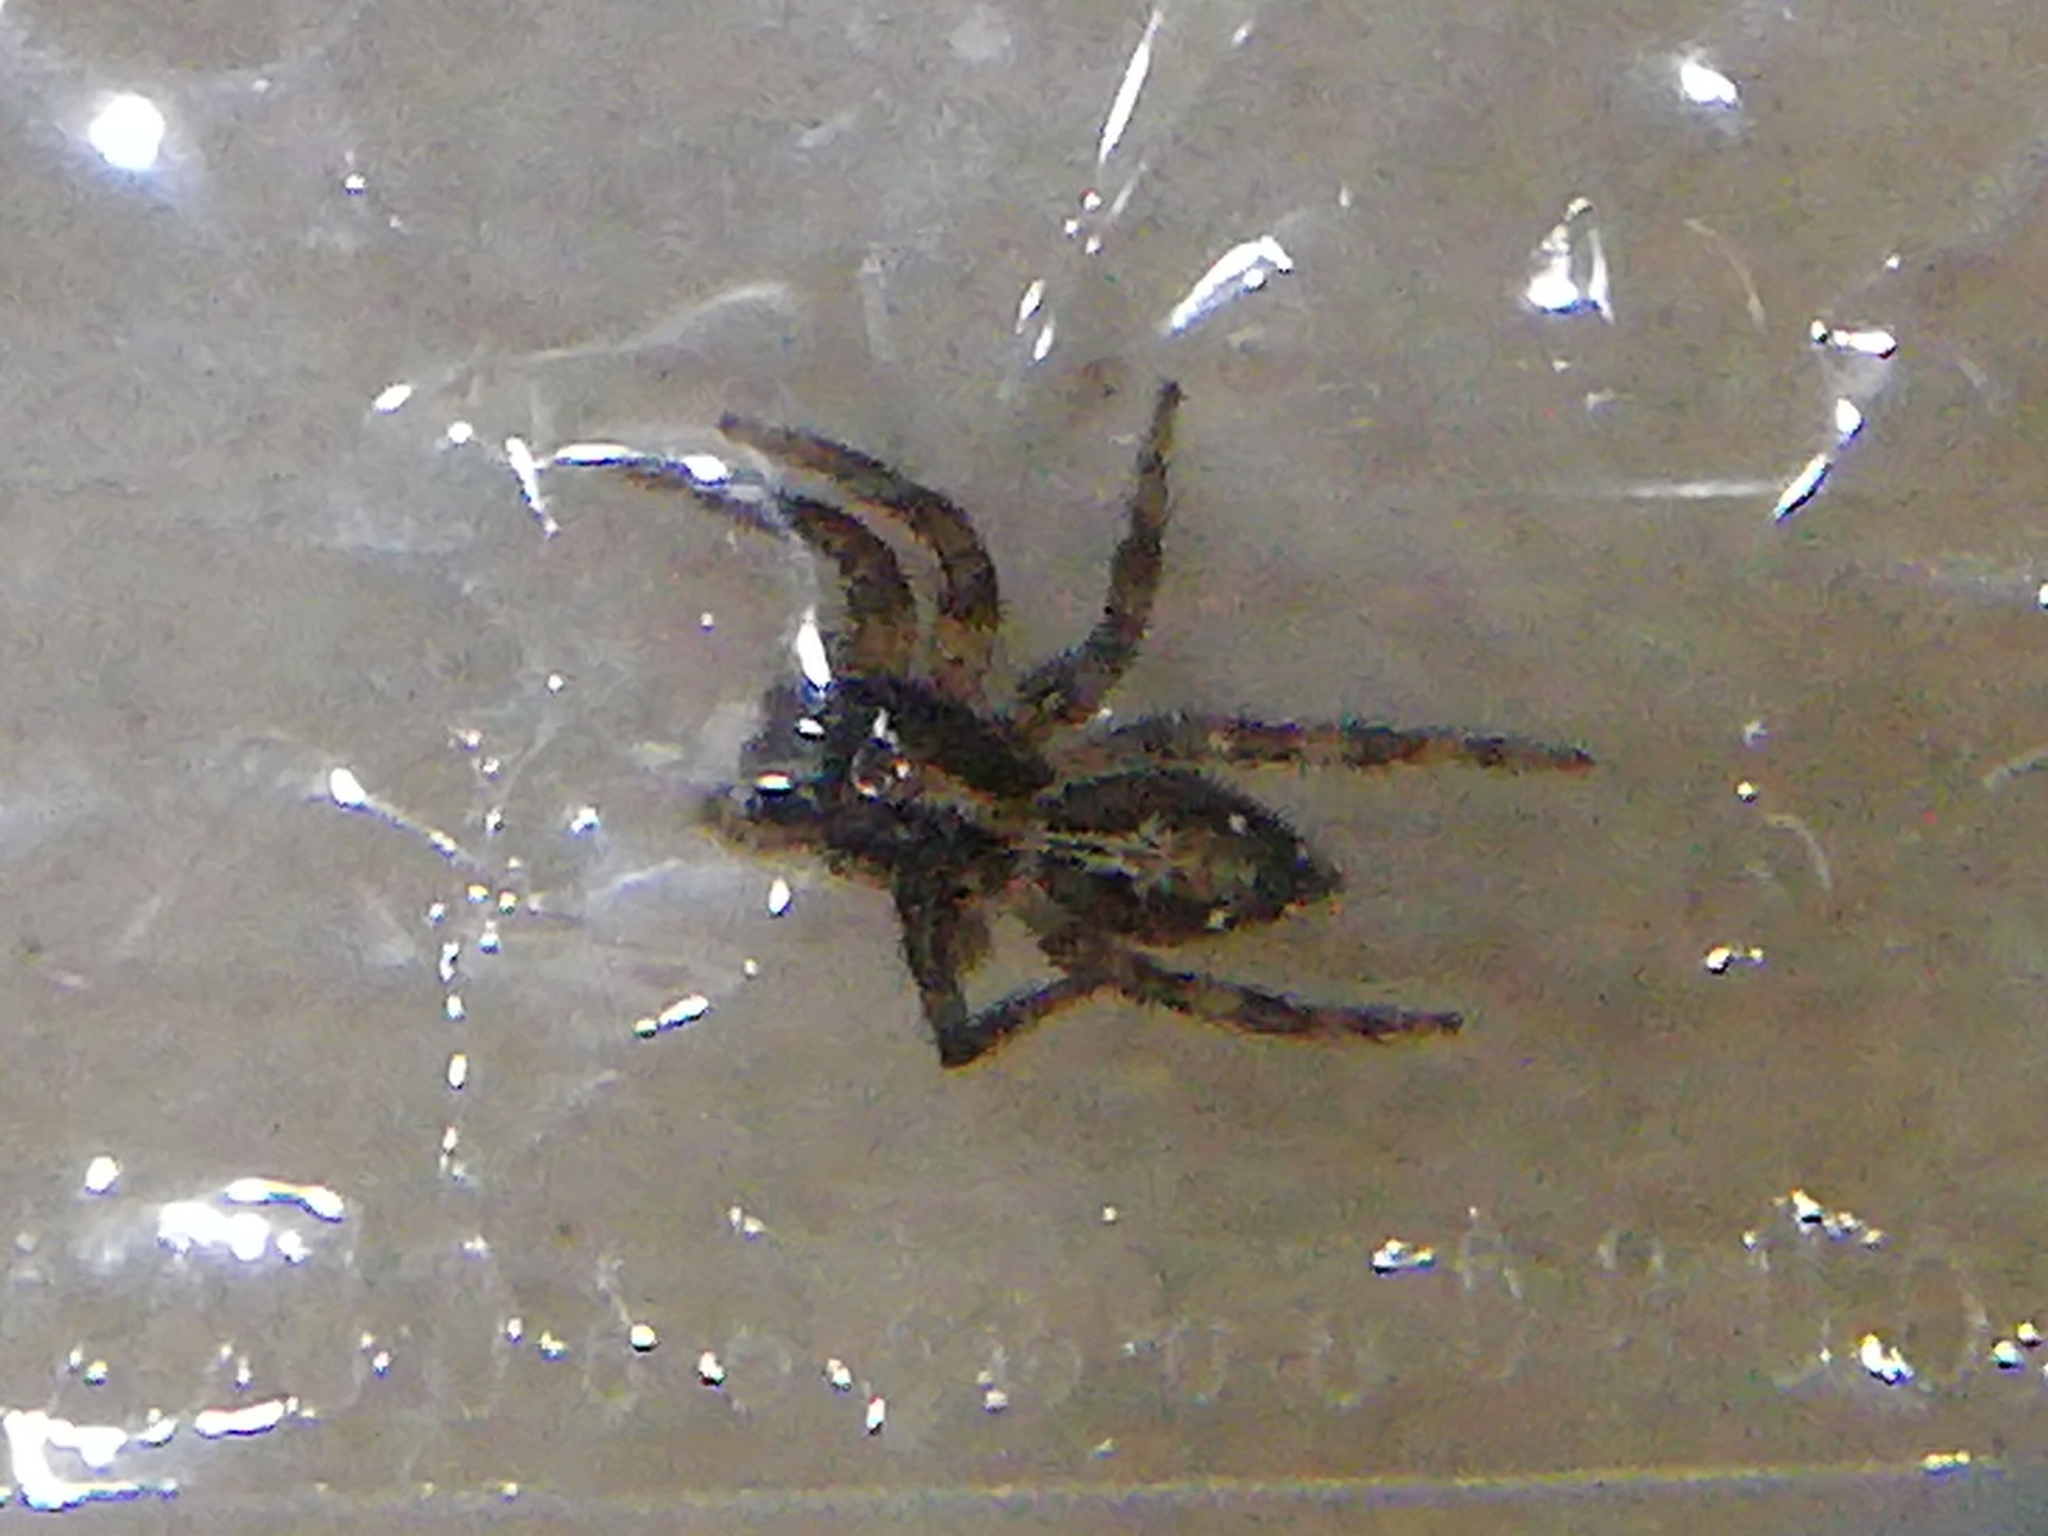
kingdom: Animalia
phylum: Arthropoda
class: Arachnida
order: Araneae
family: Salticidae
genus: Plexippus
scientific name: Plexippus paykulli
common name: Pantropical jumper
